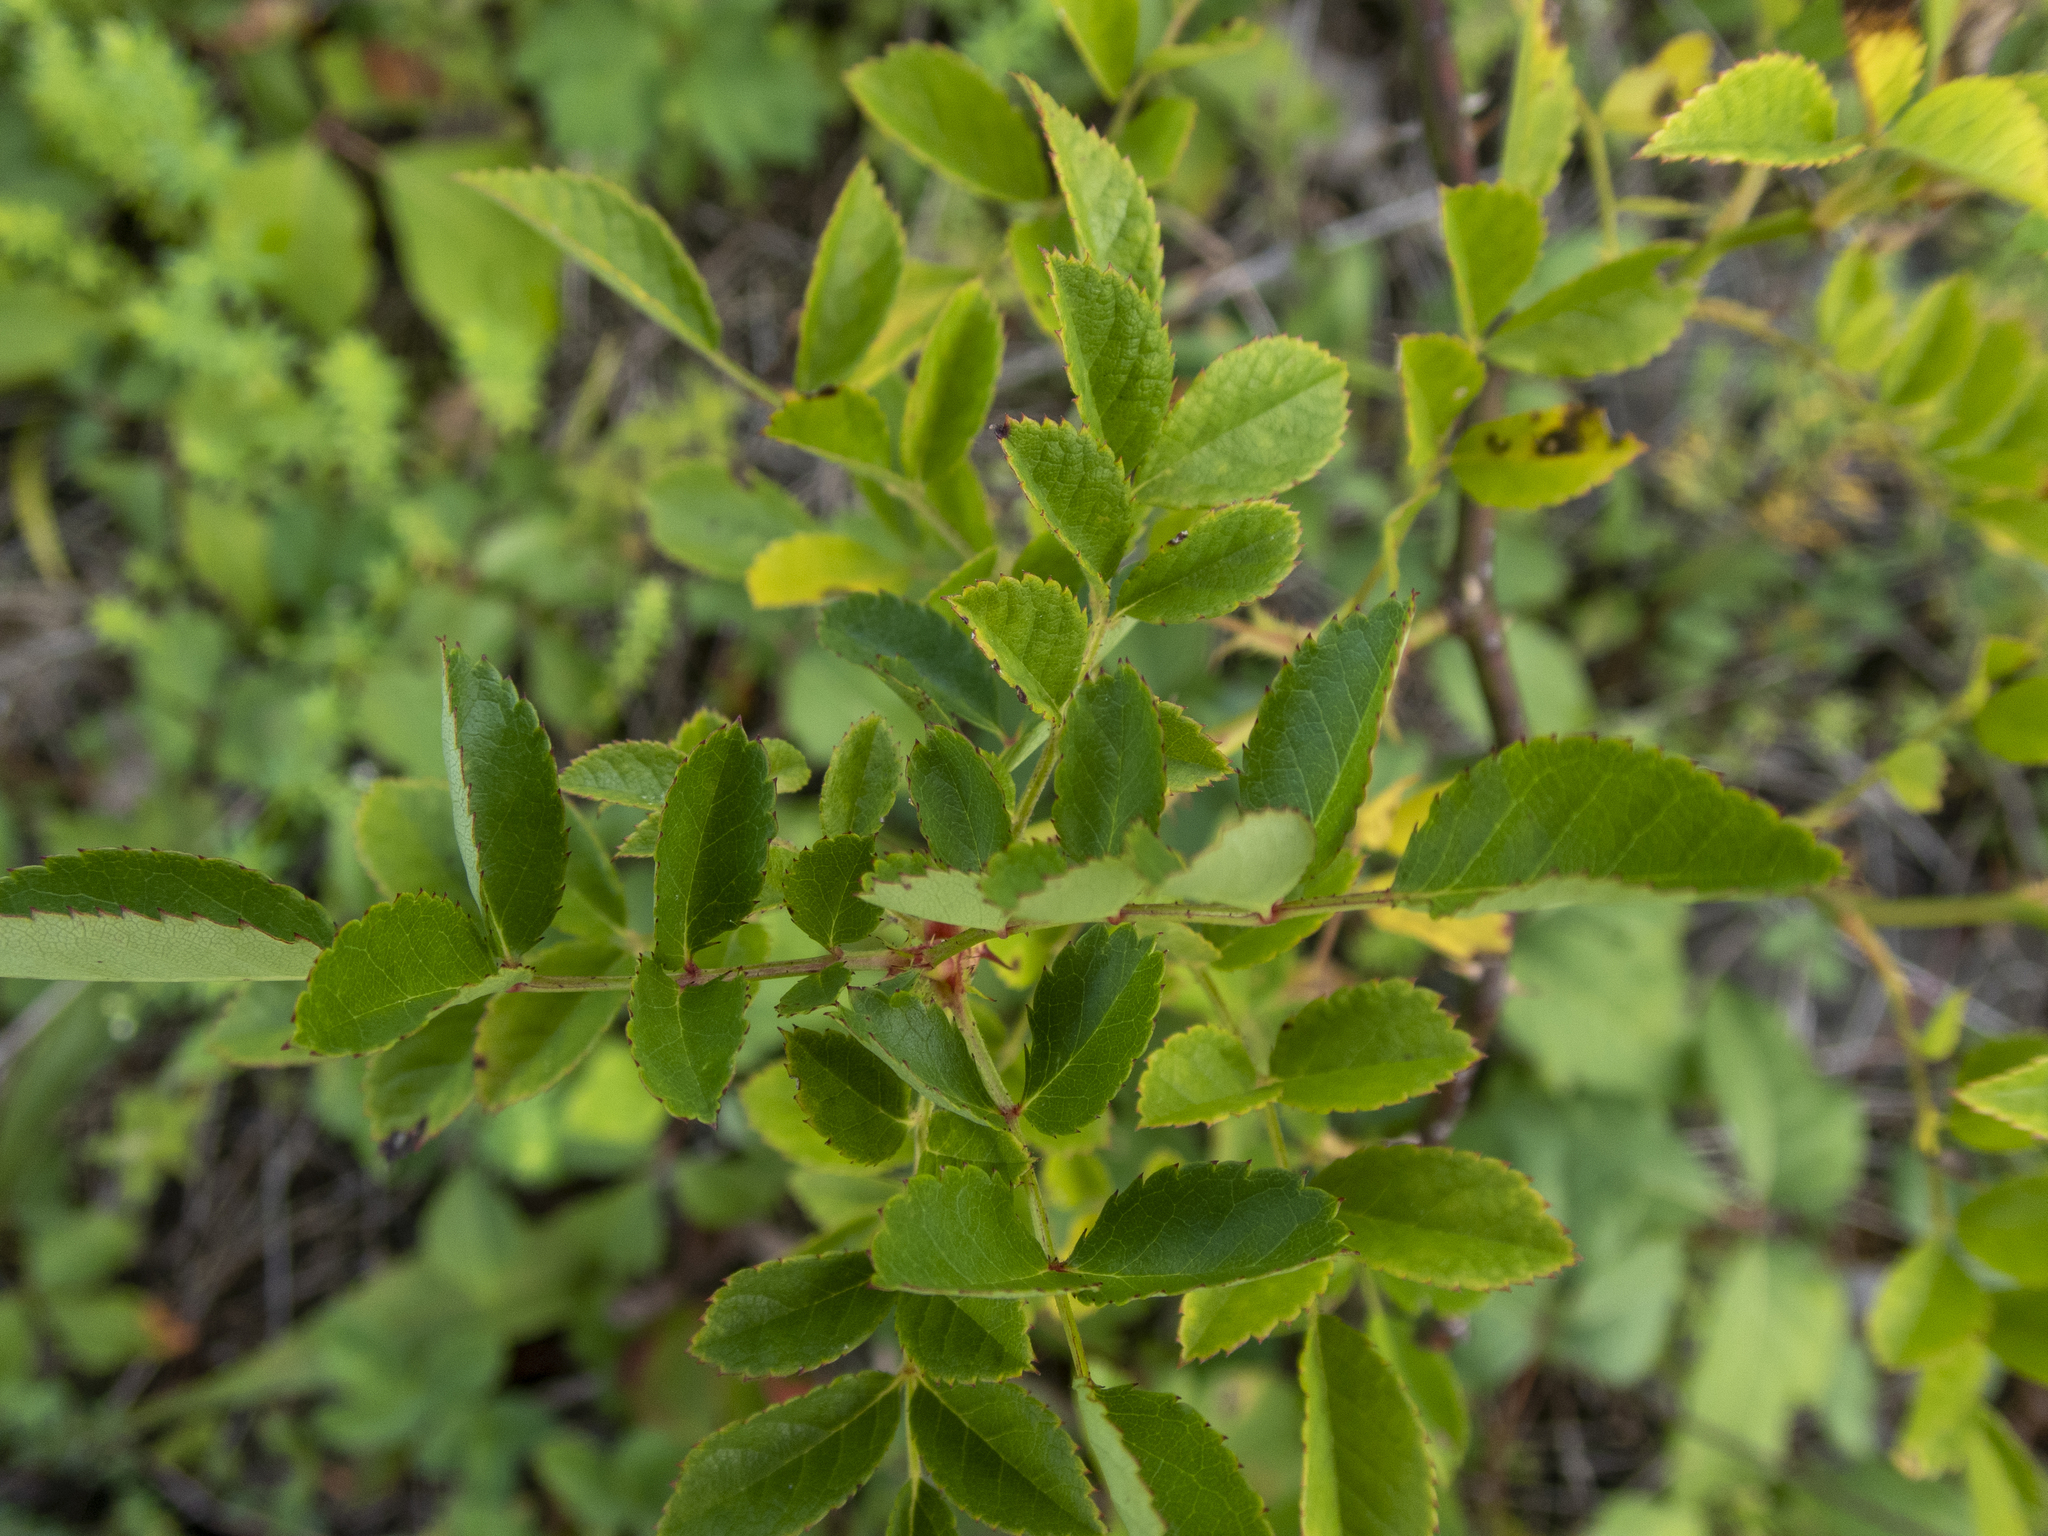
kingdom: Plantae
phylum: Tracheophyta
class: Magnoliopsida
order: Rosales
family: Rosaceae
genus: Rosa
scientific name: Rosa multiflora
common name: Multiflora rose
